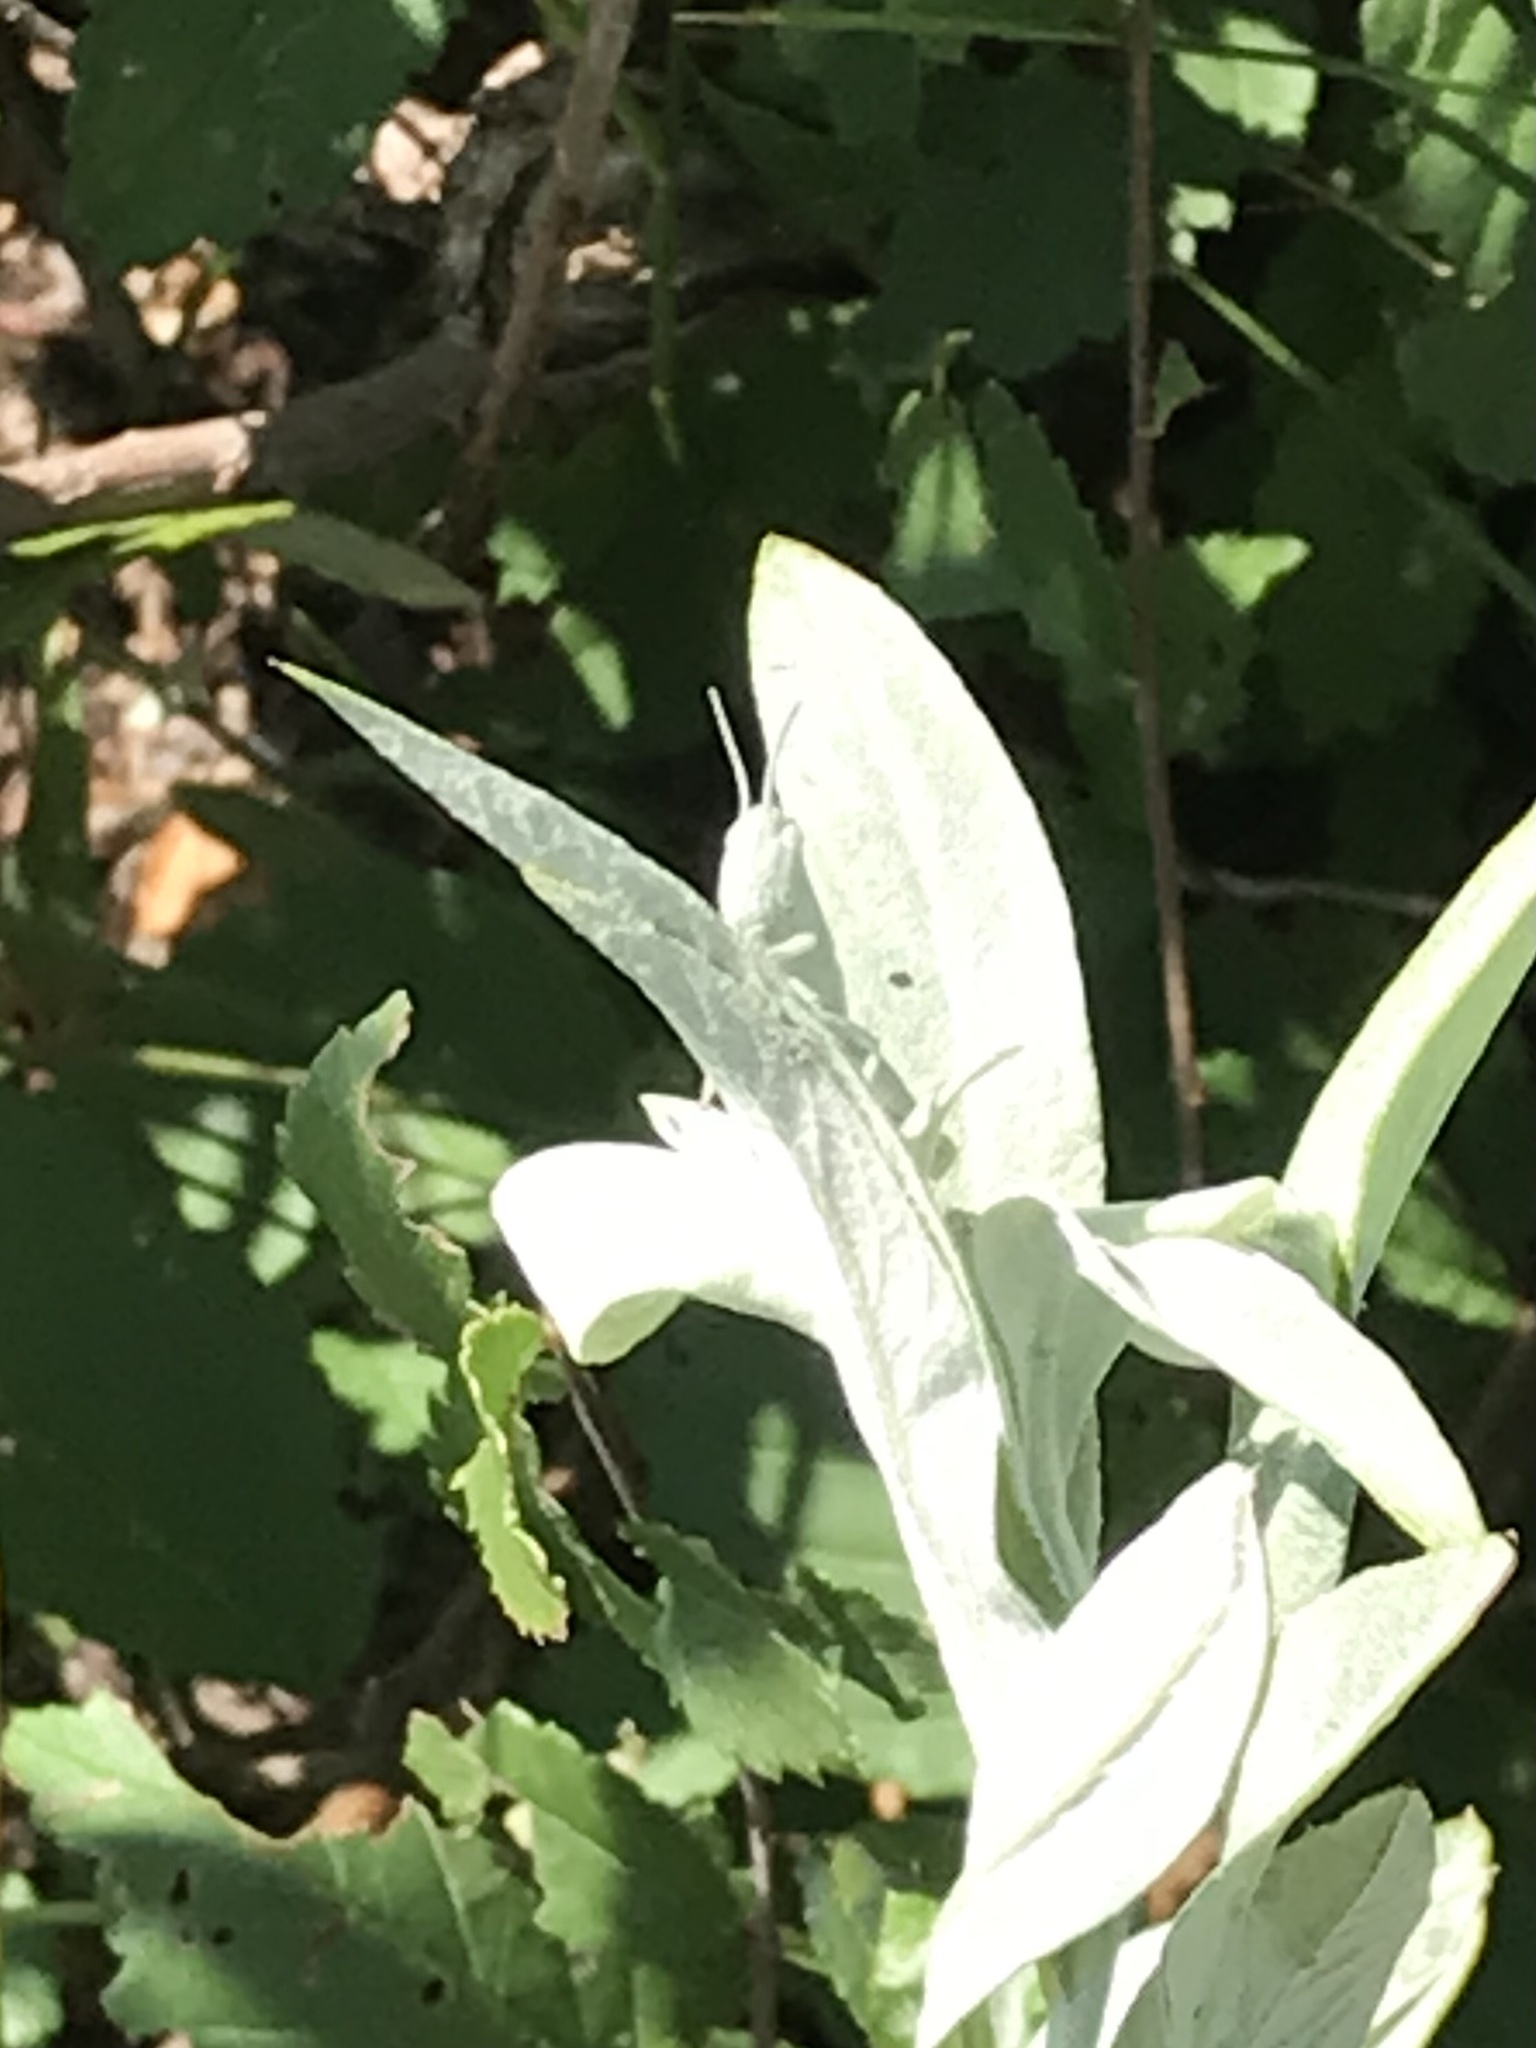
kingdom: Animalia
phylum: Arthropoda
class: Insecta
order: Orthoptera
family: Acrididae
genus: Hypochlora
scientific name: Hypochlora alba
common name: Cudweed grasshopper
